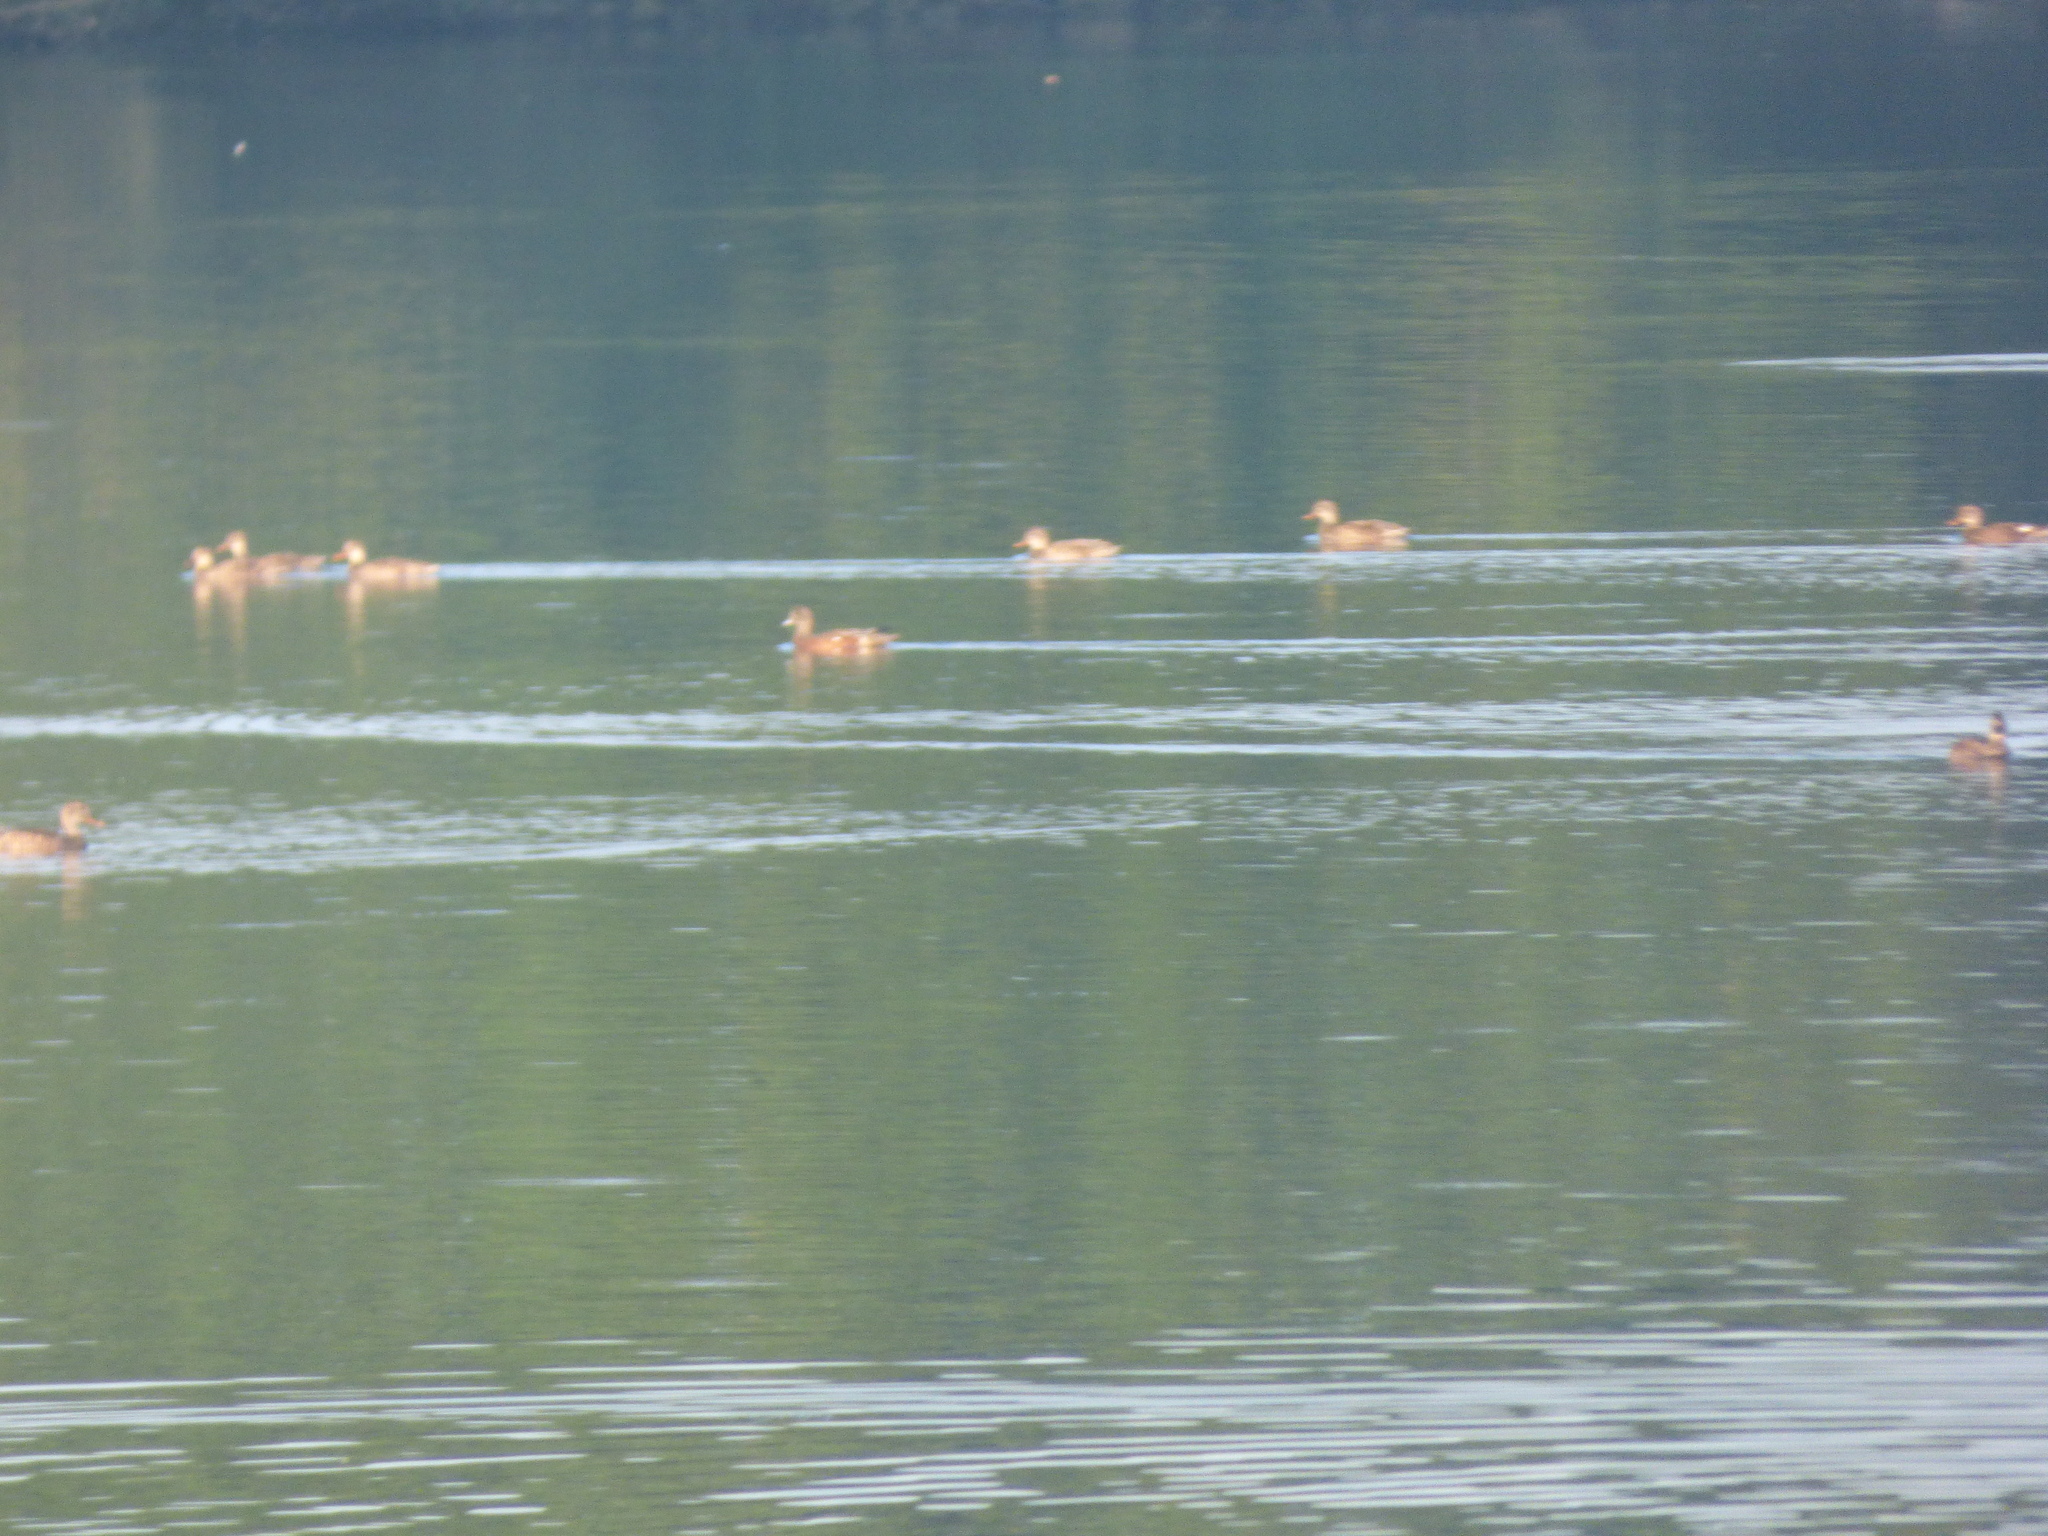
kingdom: Animalia
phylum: Chordata
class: Aves
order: Anseriformes
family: Anatidae
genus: Mareca
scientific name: Mareca strepera
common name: Gadwall
